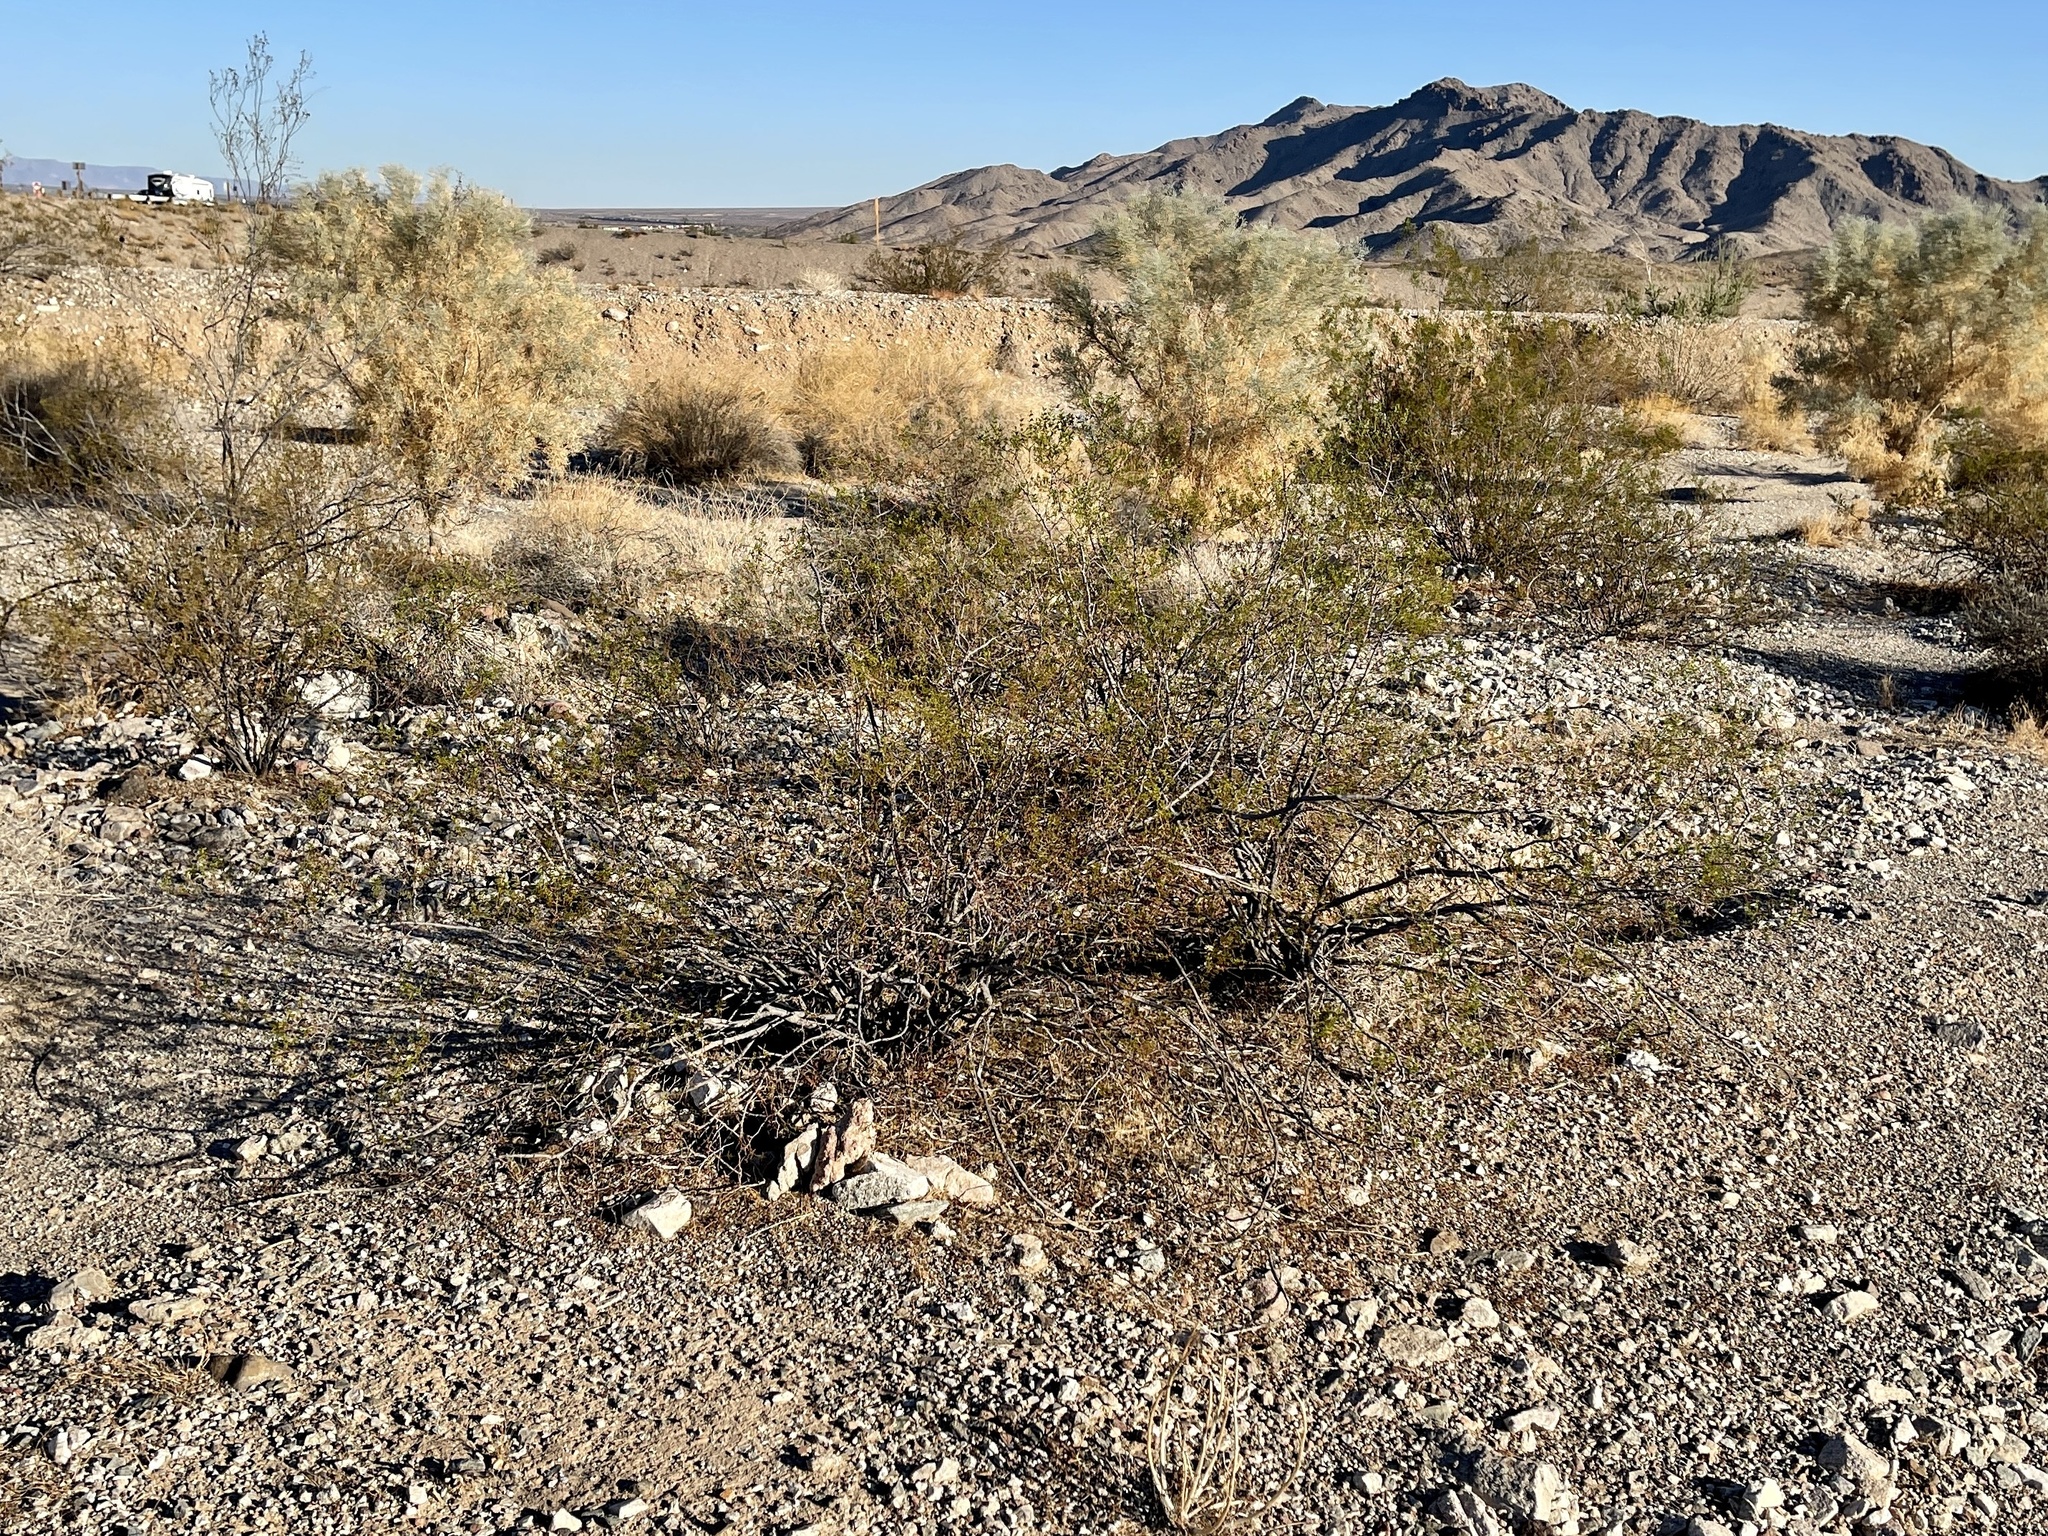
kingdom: Plantae
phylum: Tracheophyta
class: Magnoliopsida
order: Zygophyllales
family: Zygophyllaceae
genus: Larrea
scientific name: Larrea tridentata
